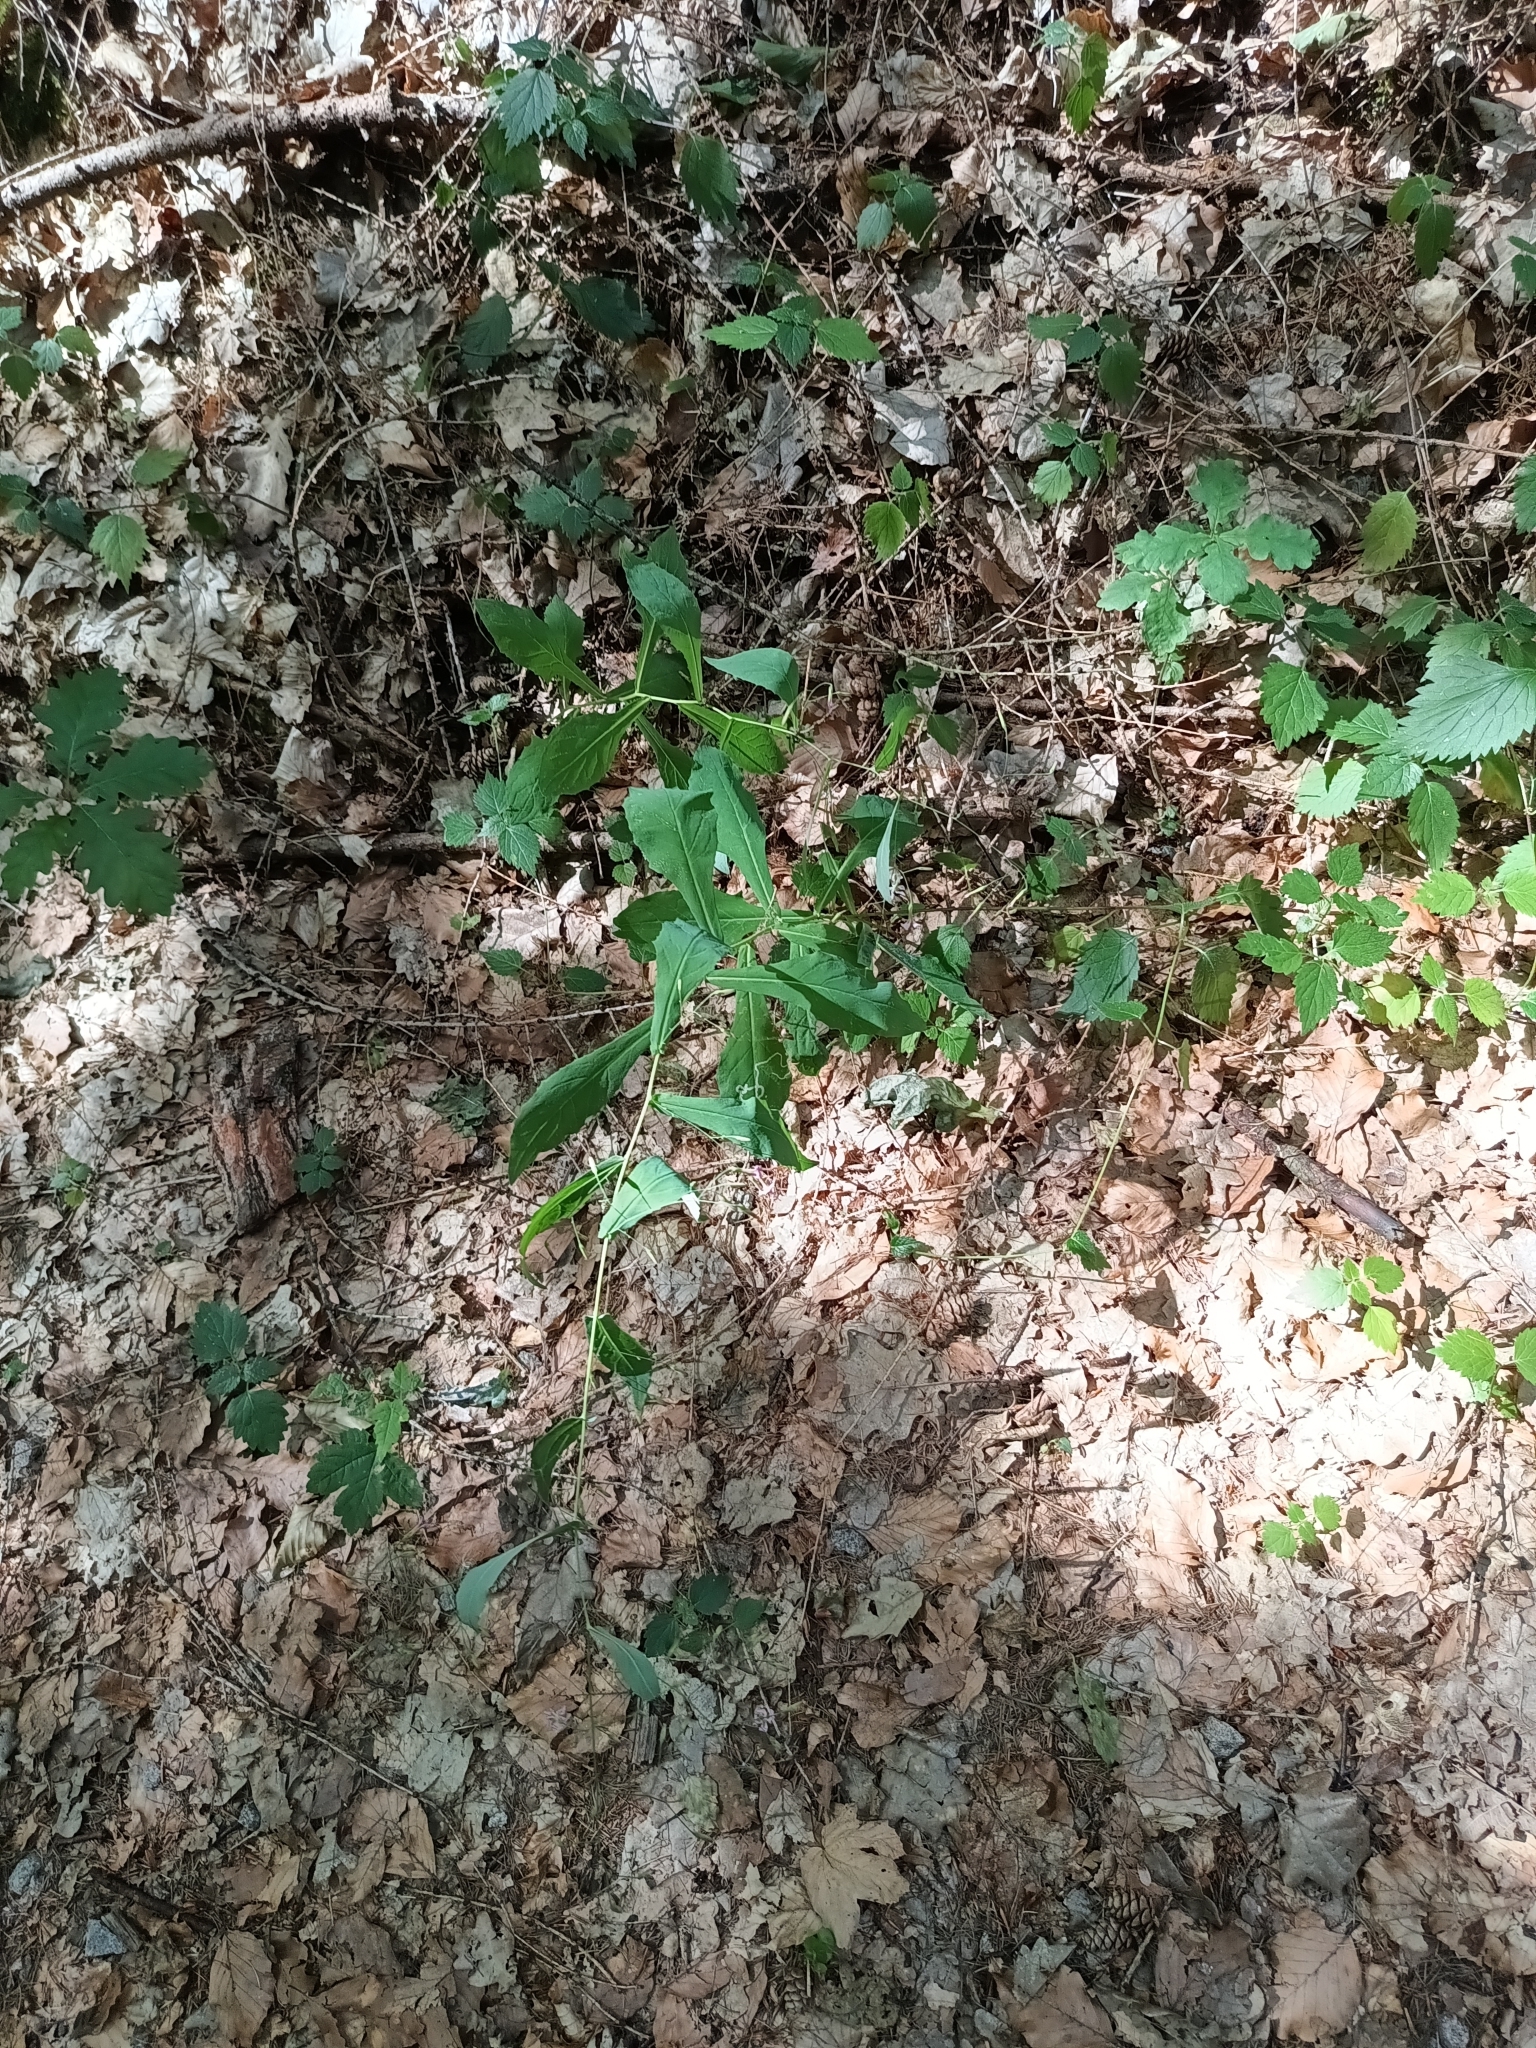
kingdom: Plantae
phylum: Tracheophyta
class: Magnoliopsida
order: Asterales
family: Asteraceae
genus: Prenanthes
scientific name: Prenanthes purpurea
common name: Purple lettuce
